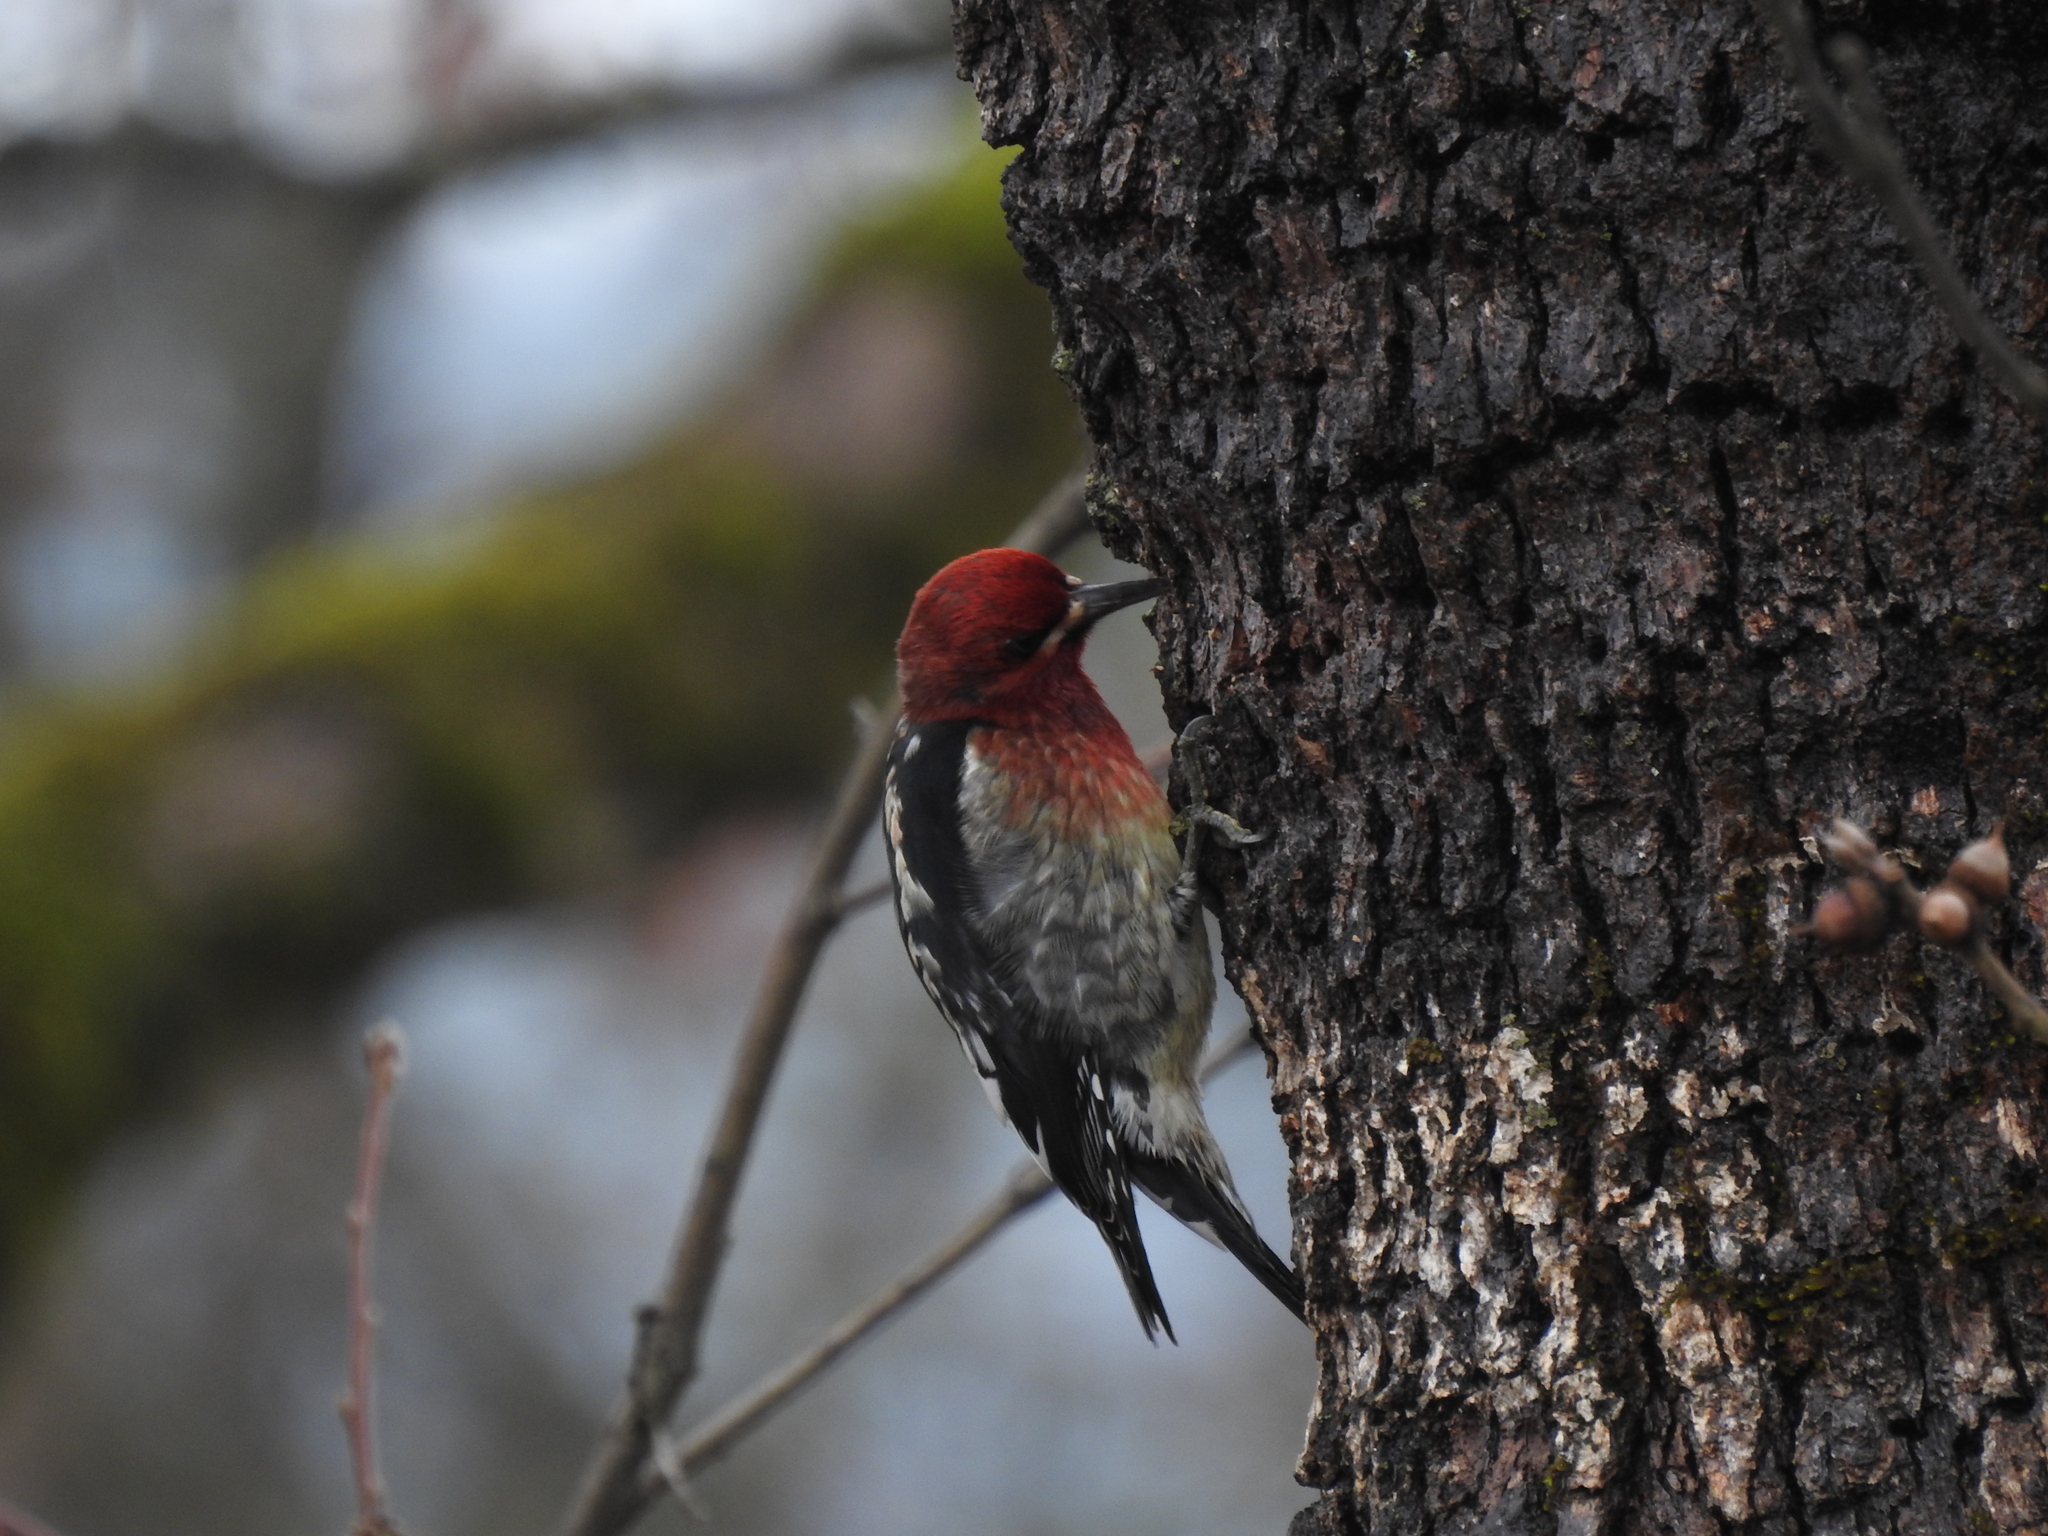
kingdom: Animalia
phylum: Chordata
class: Aves
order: Piciformes
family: Picidae
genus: Sphyrapicus
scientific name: Sphyrapicus ruber
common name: Red-breasted sapsucker
